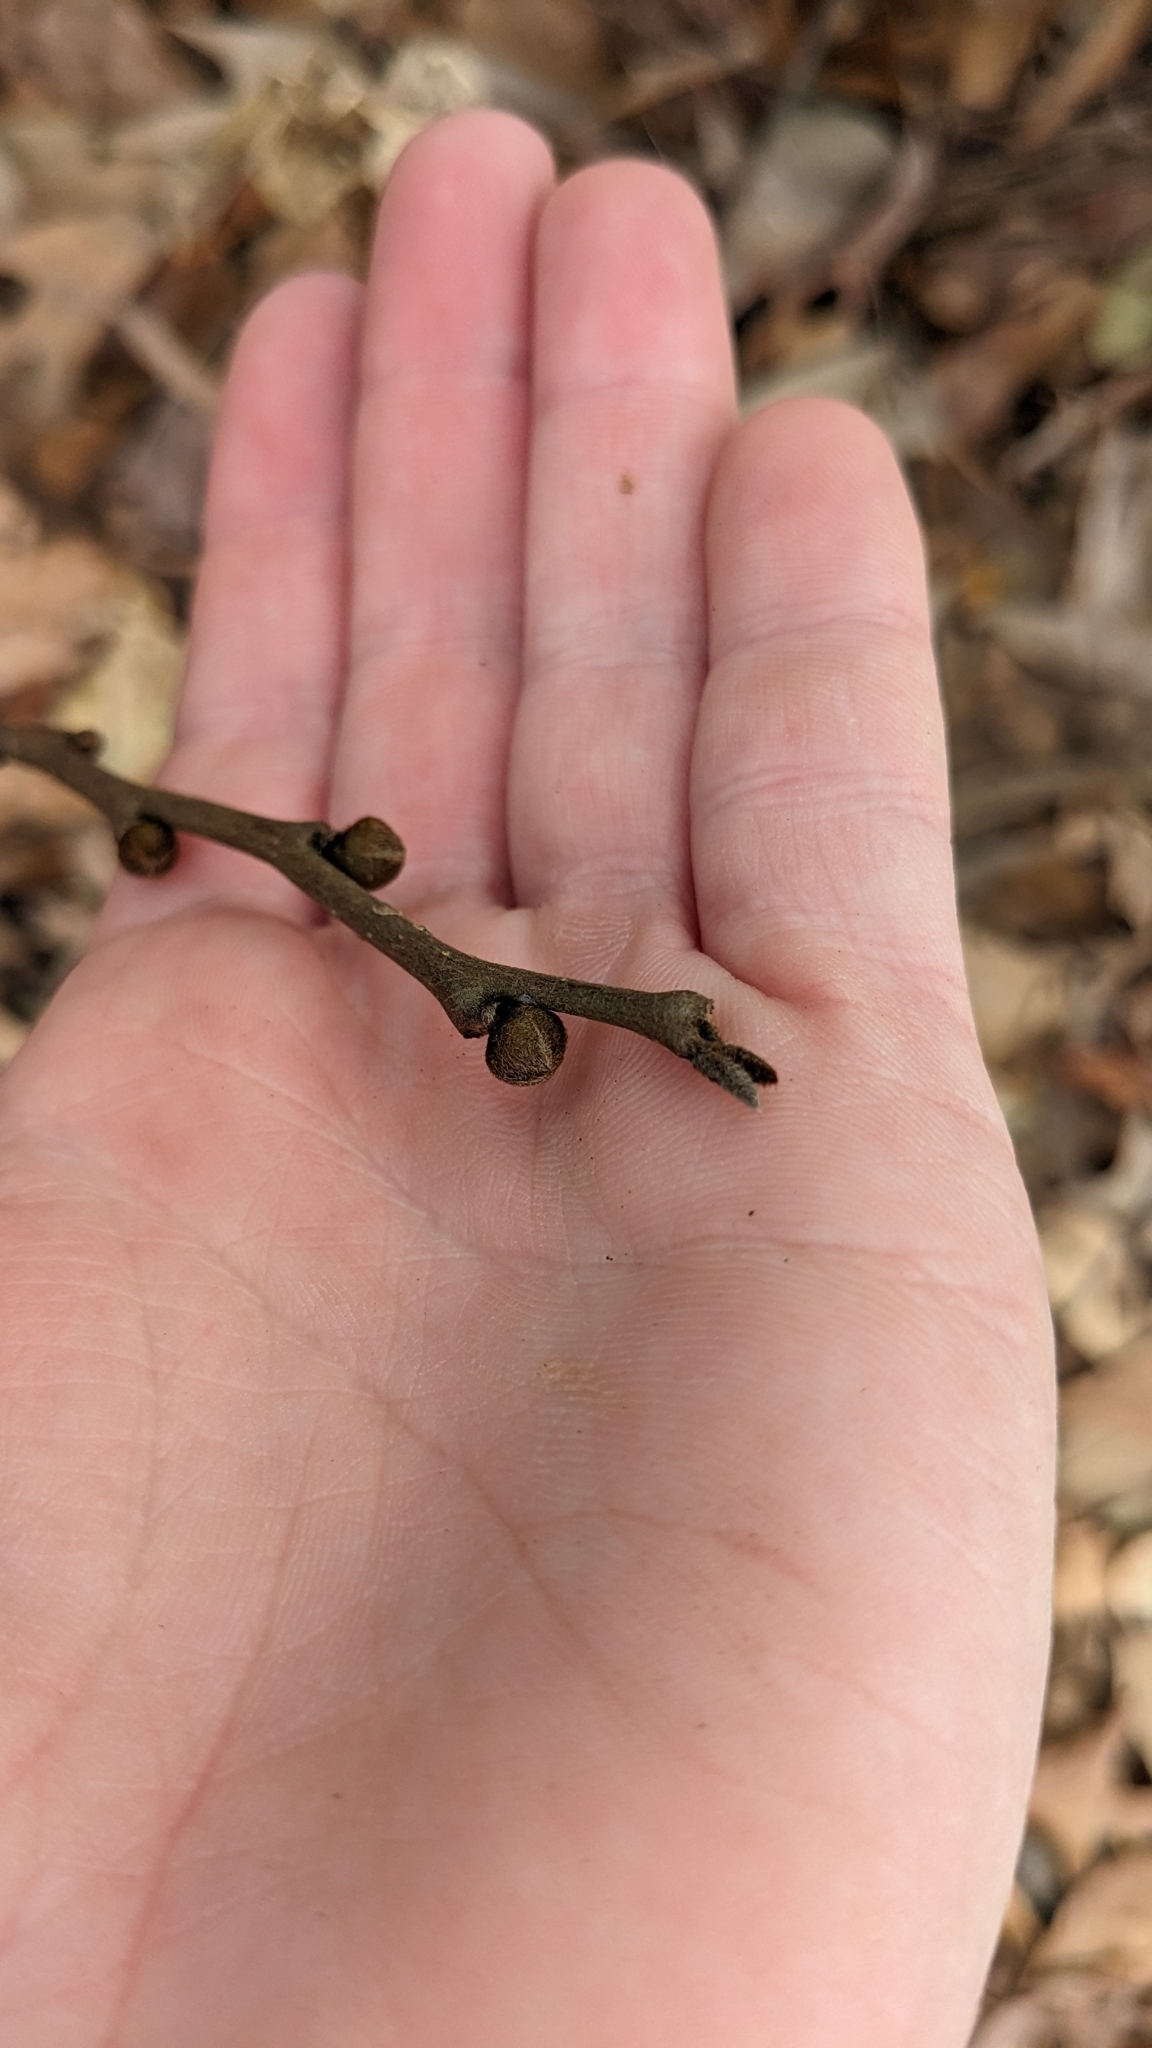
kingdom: Plantae
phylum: Tracheophyta
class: Magnoliopsida
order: Magnoliales
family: Annonaceae
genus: Asimina
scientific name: Asimina parviflora
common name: Dwarf pawpaw
